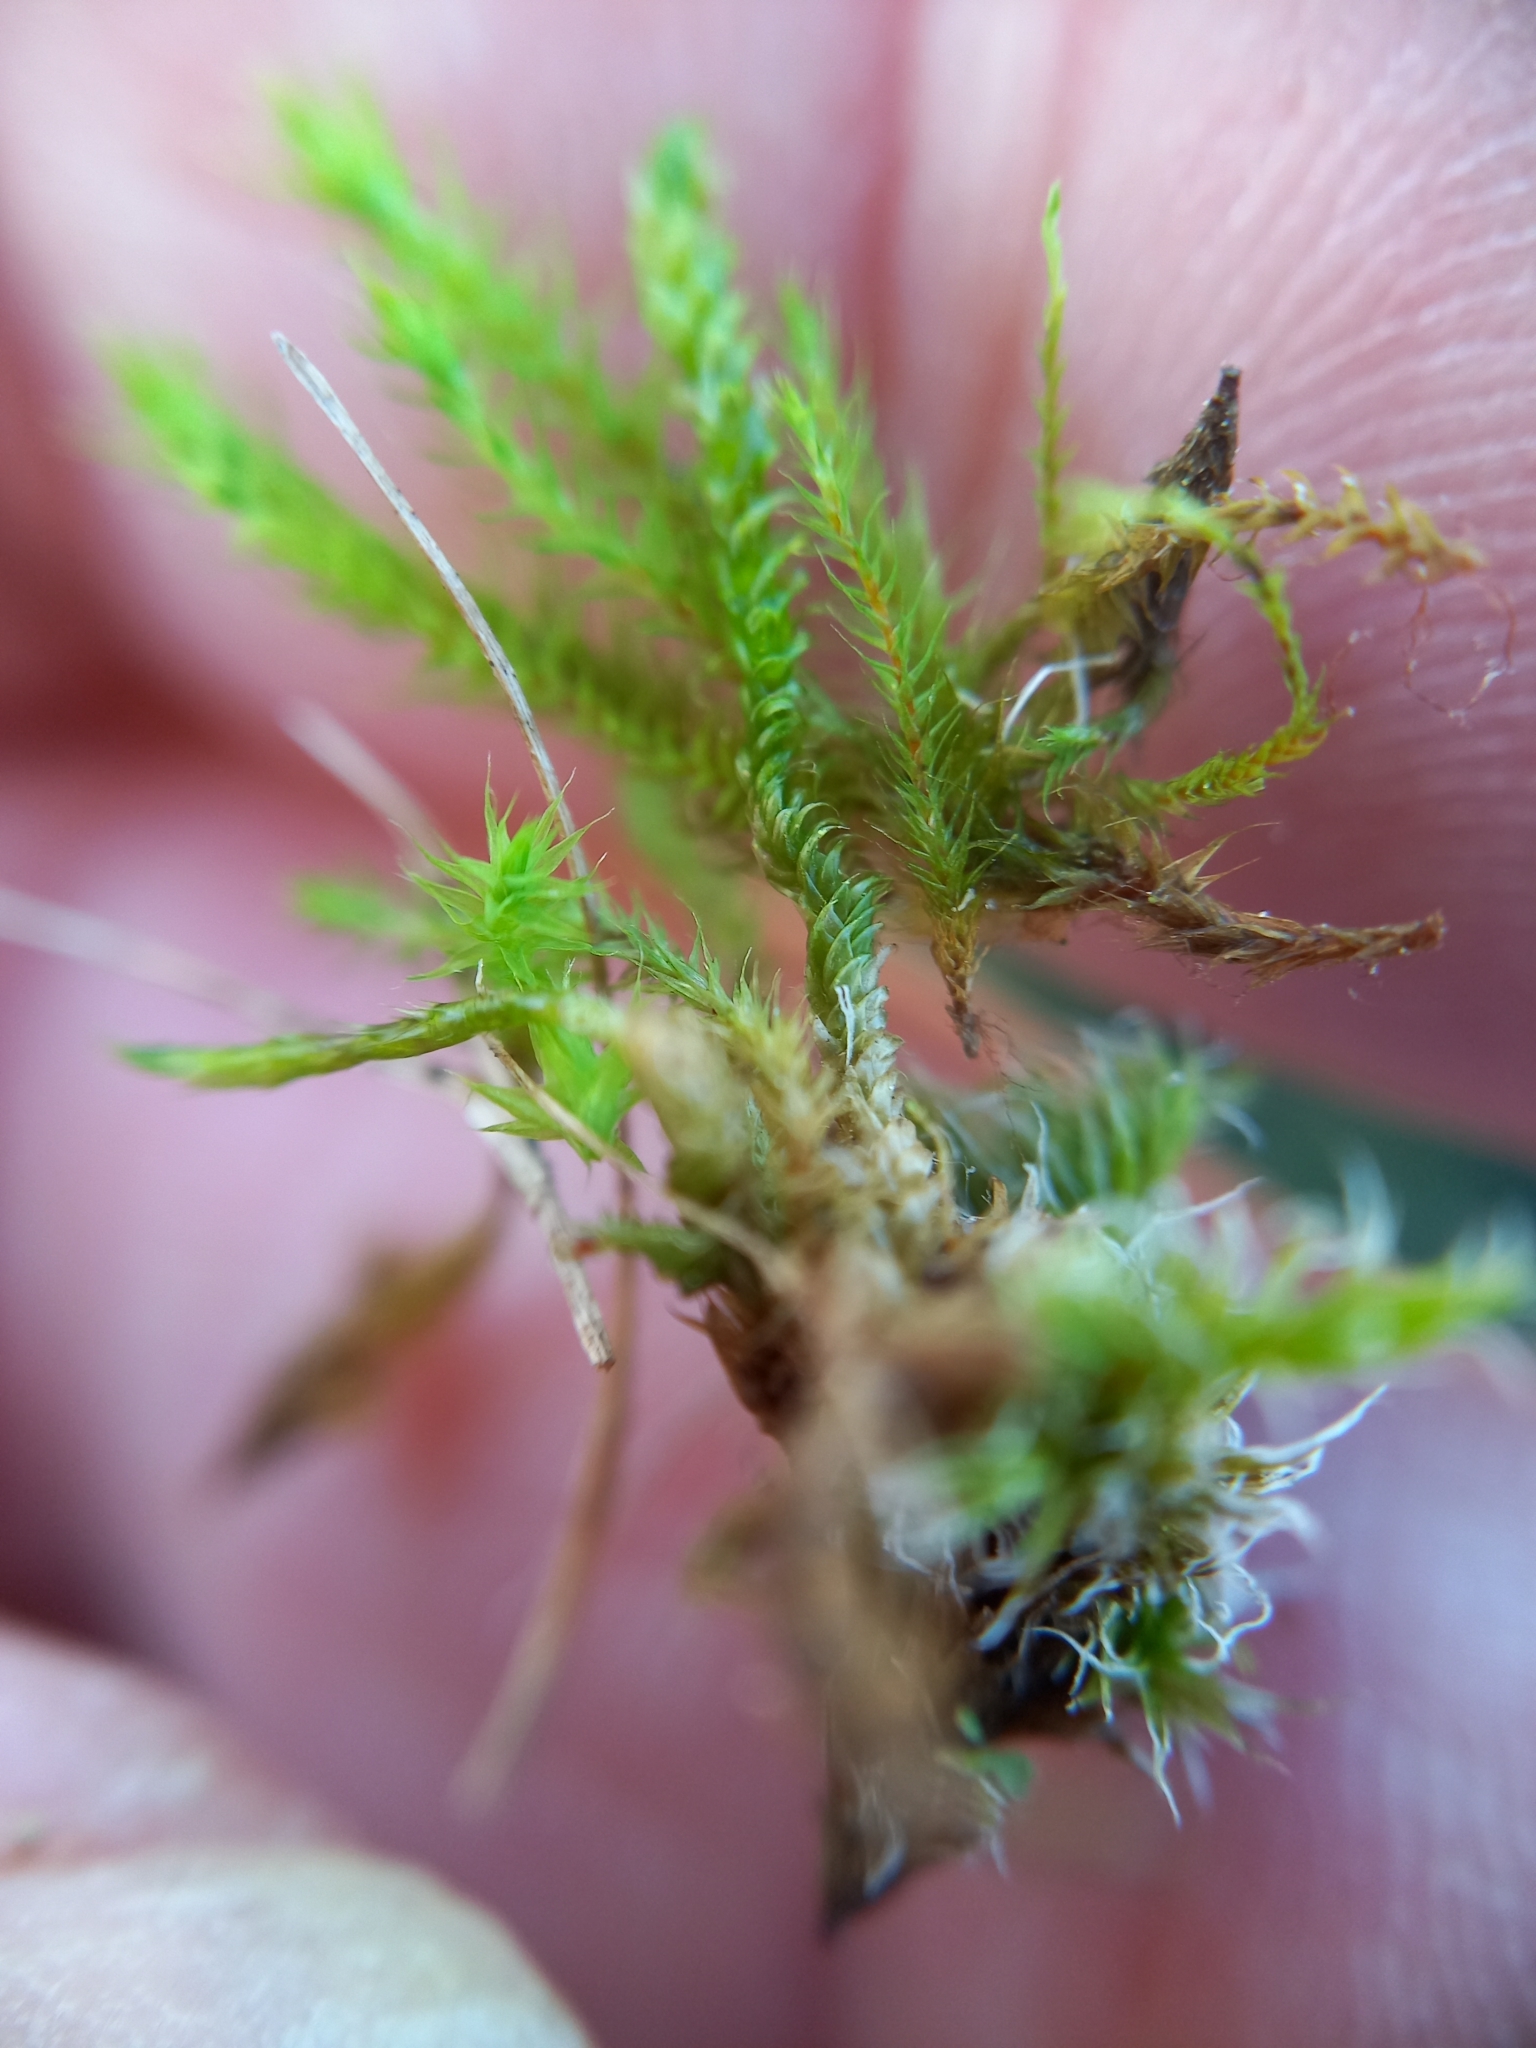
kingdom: Plantae
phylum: Bryophyta
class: Bryopsida
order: Bartramiales
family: Bartramiaceae
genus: Breutelia
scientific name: Breutelia affinis
